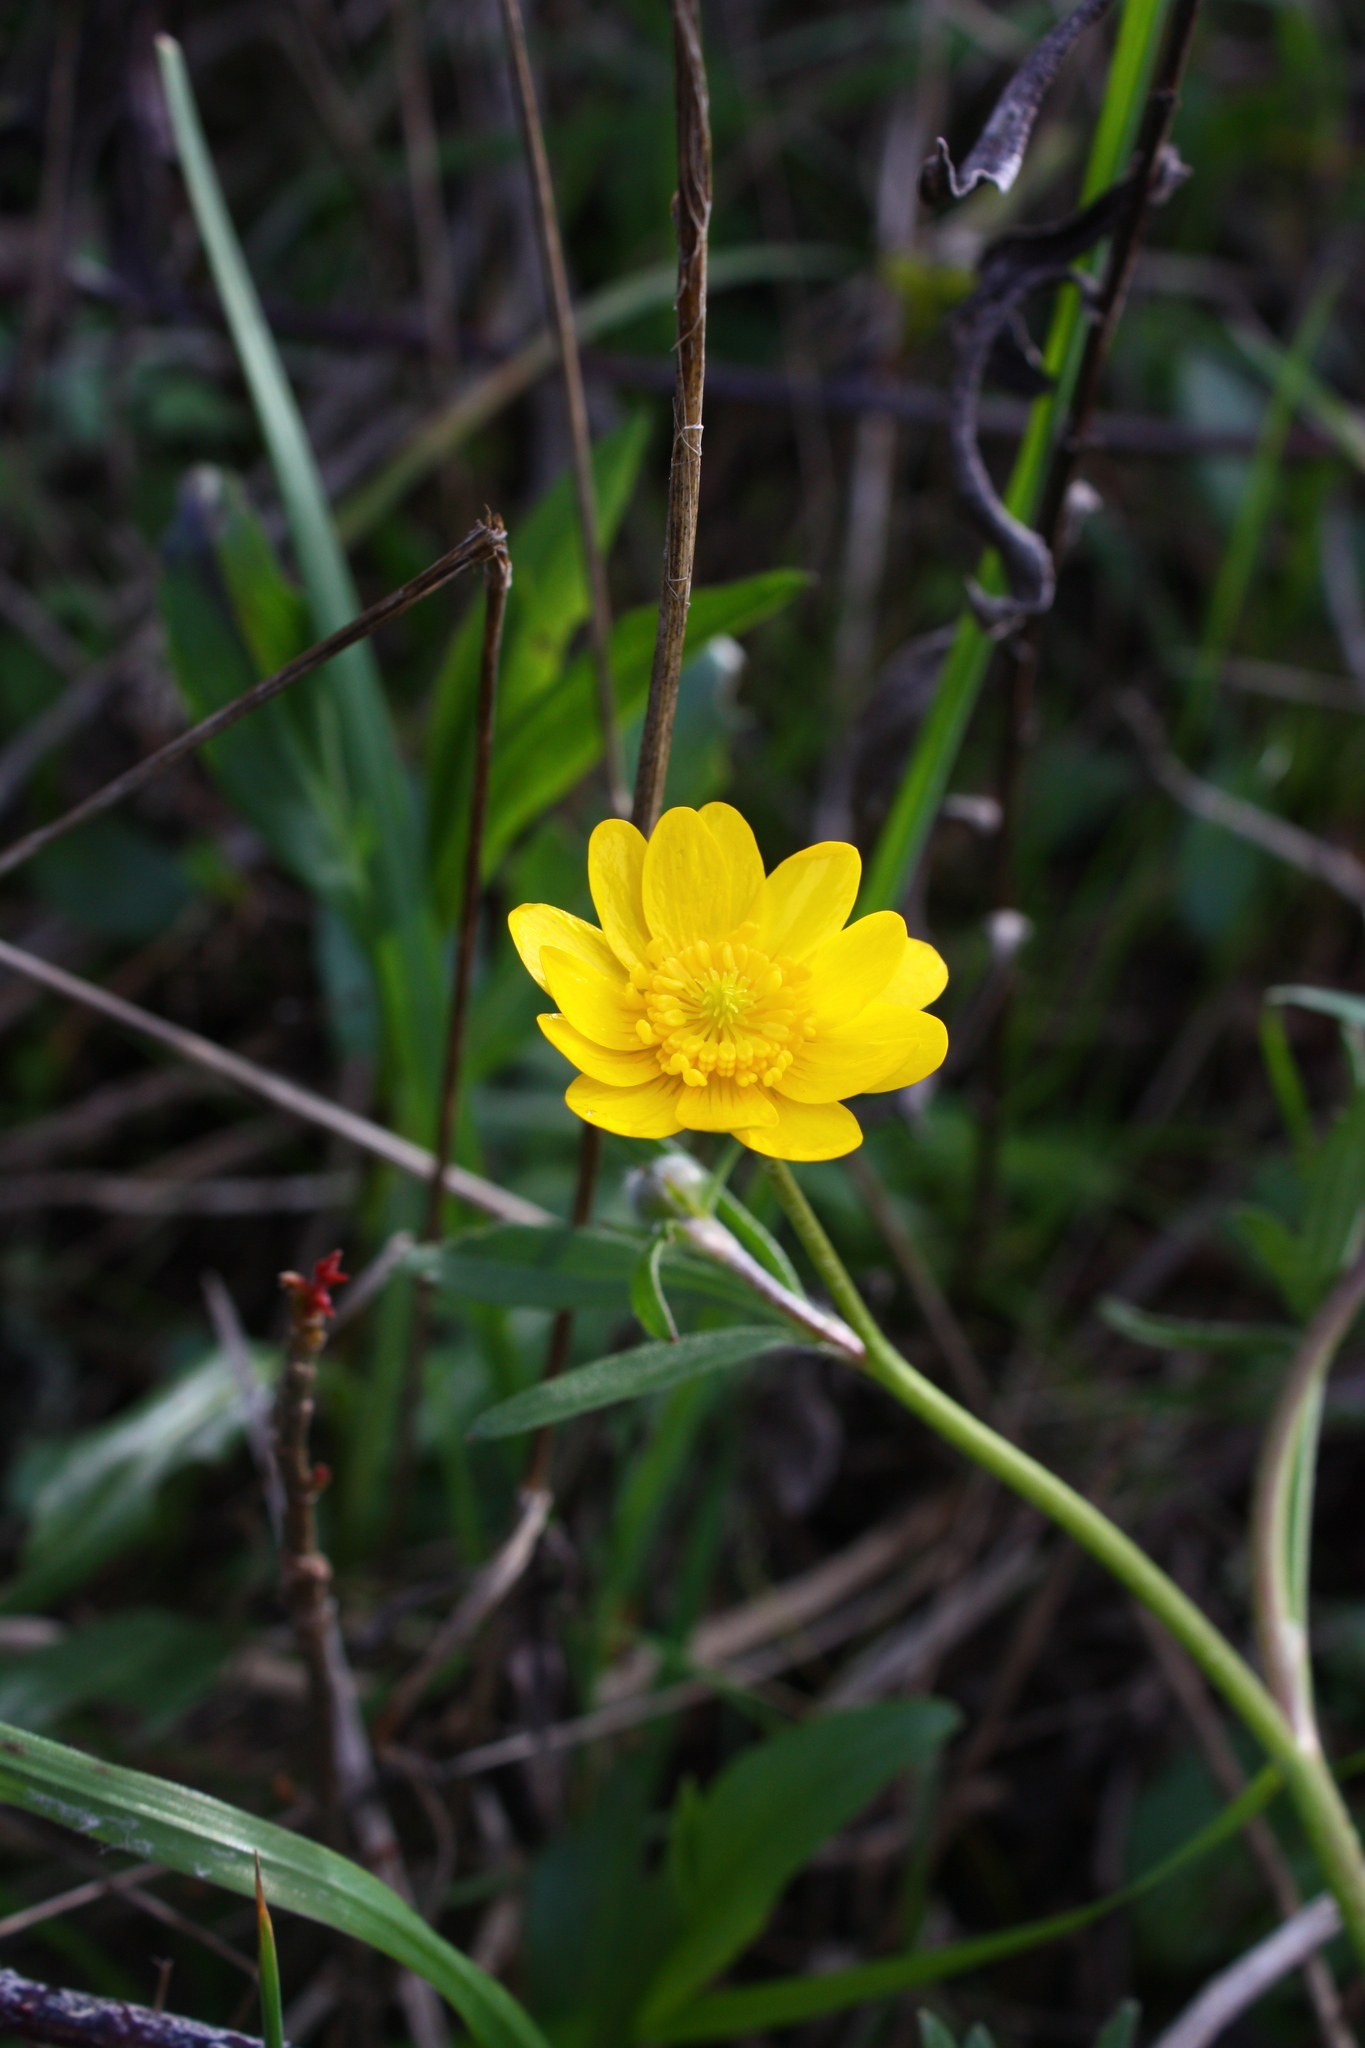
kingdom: Plantae
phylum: Tracheophyta
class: Magnoliopsida
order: Ranunculales
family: Ranunculaceae
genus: Ranunculus
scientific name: Ranunculus californicus
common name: California buttercup
